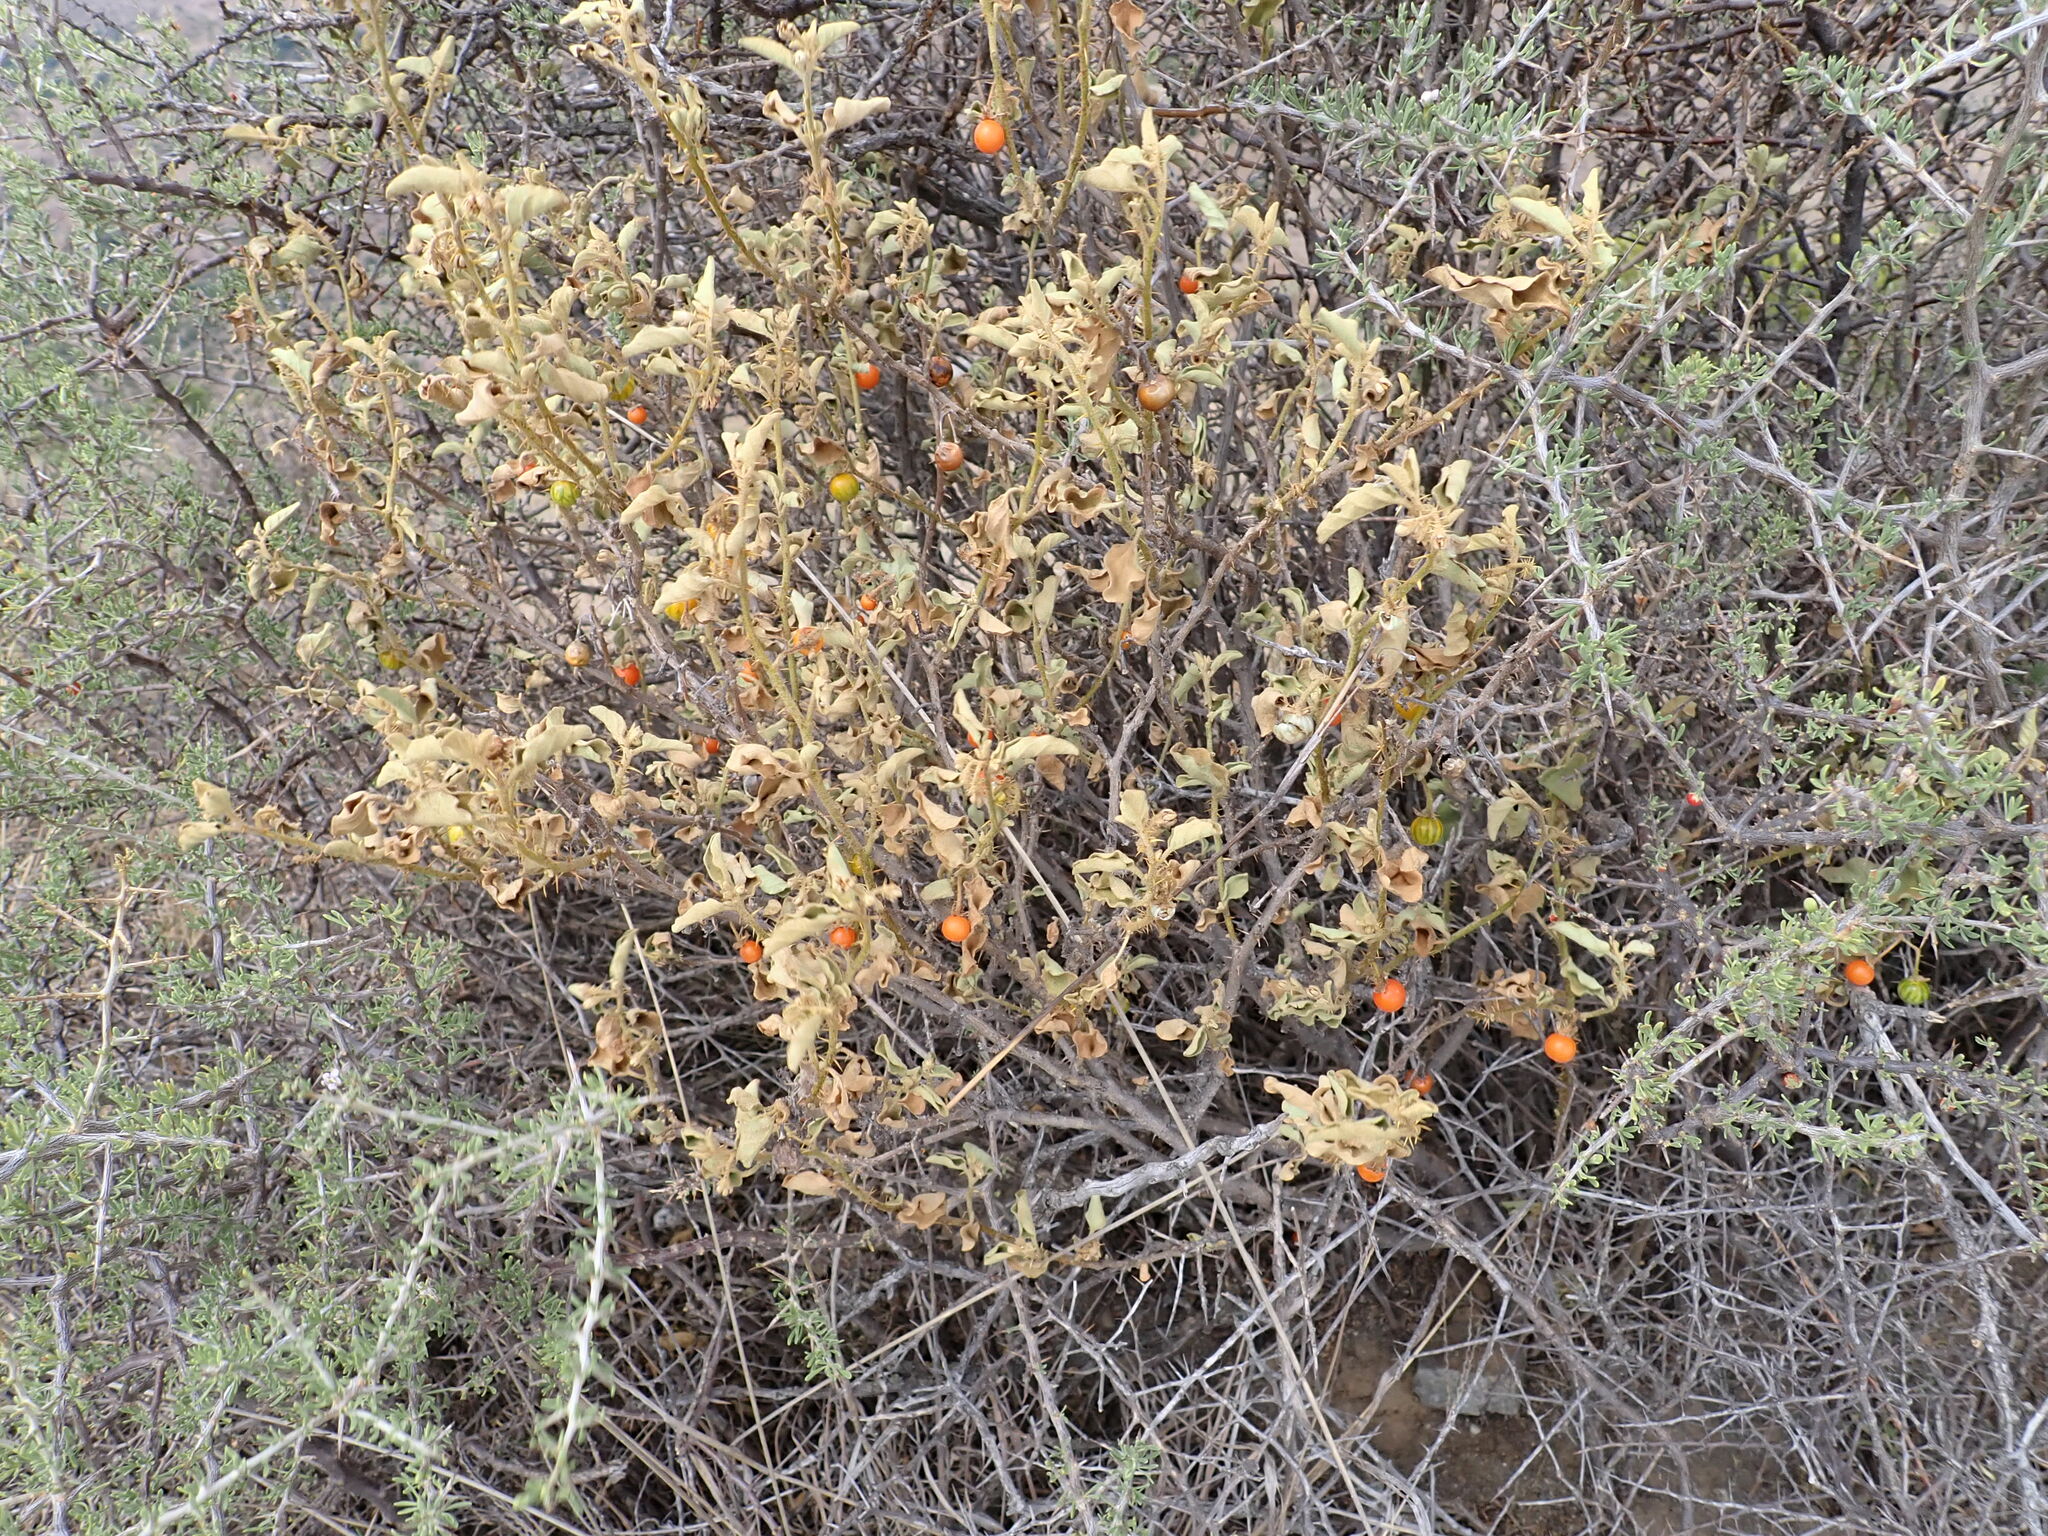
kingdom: Plantae
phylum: Tracheophyta
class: Magnoliopsida
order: Solanales
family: Solanaceae
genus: Solanum
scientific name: Solanum tomentosum
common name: Wild aubergine
